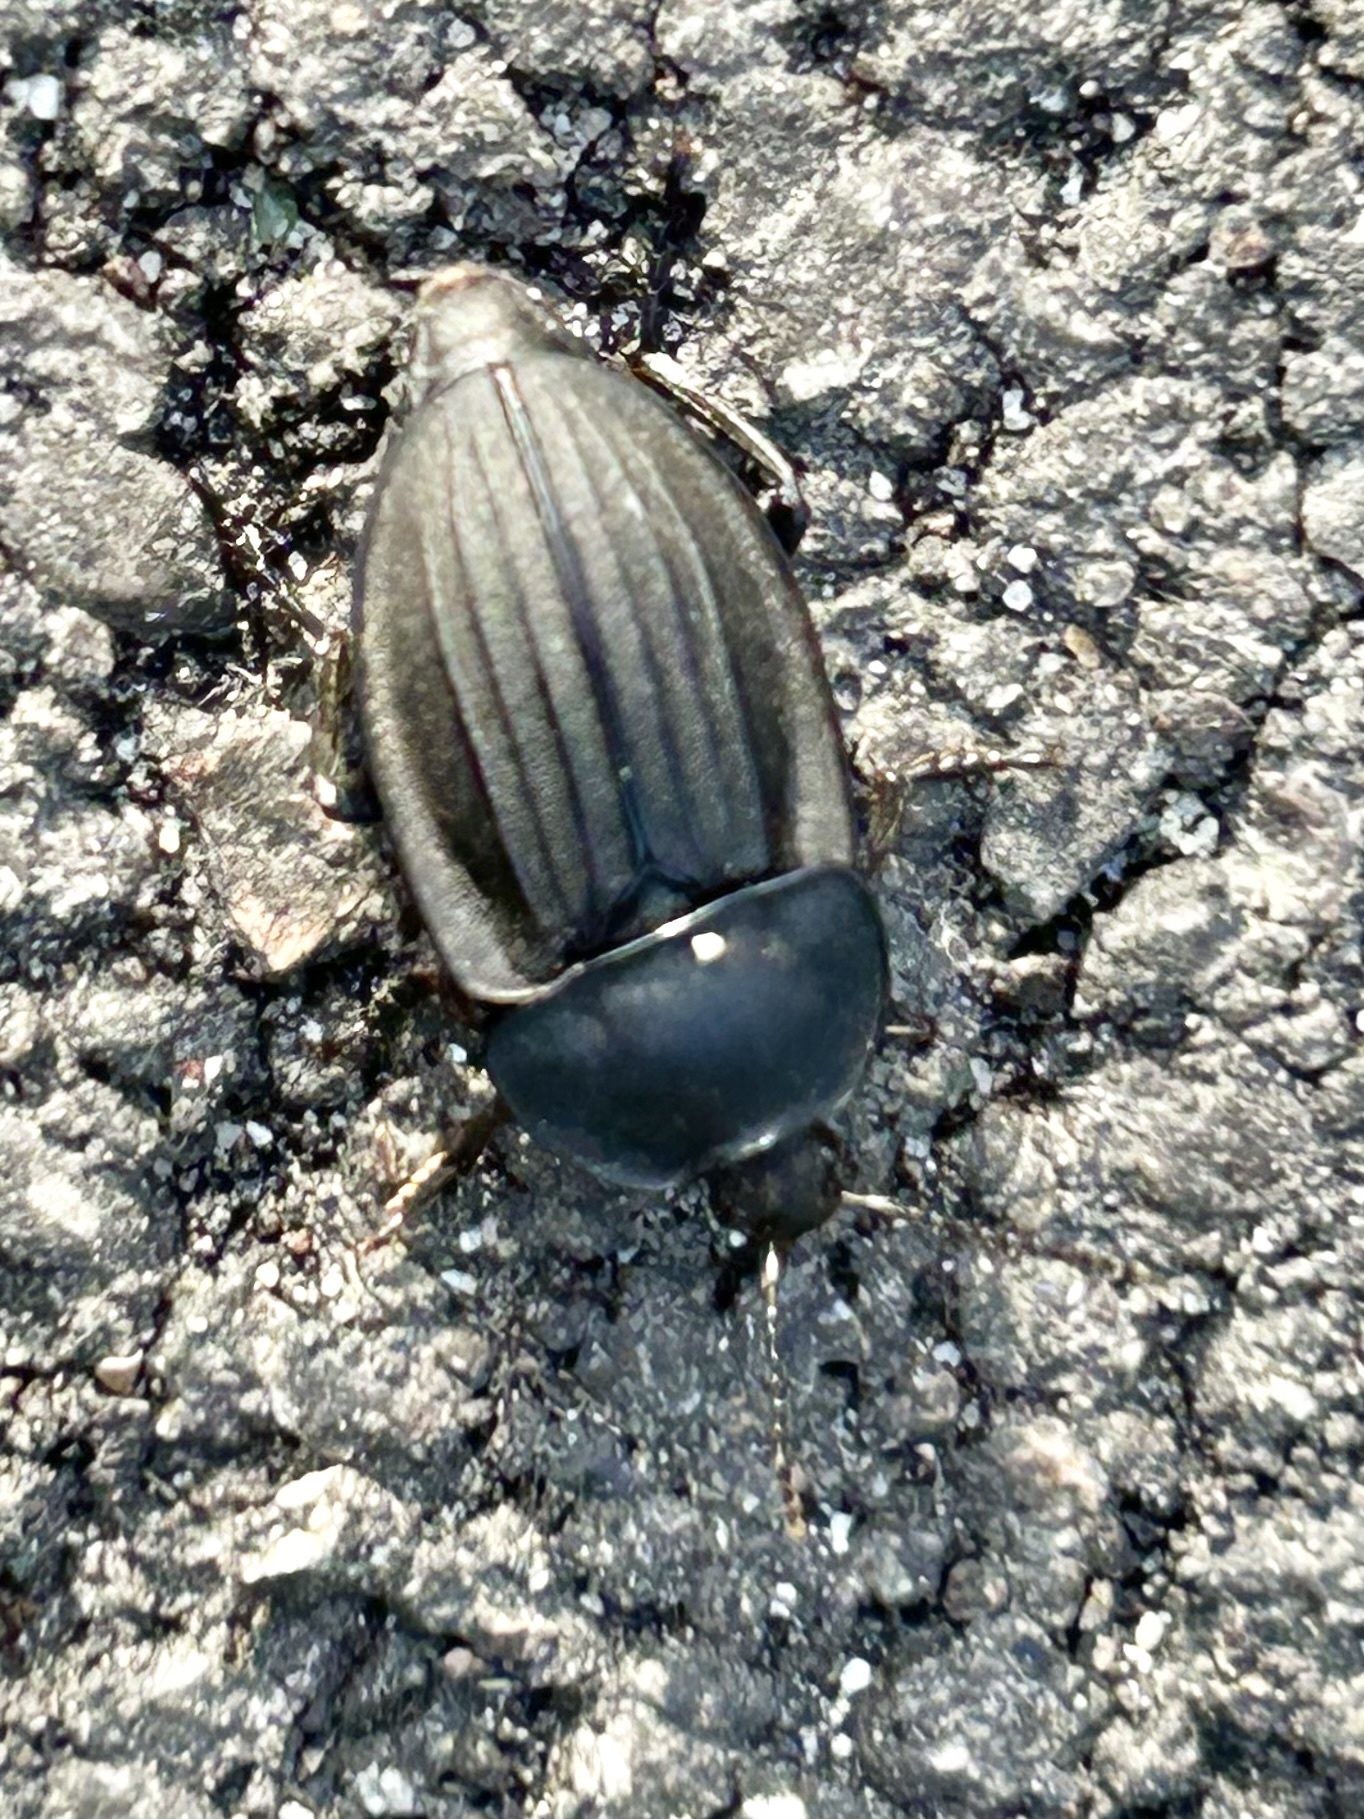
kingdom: Animalia
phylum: Arthropoda
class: Insecta
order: Coleoptera
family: Staphylinidae
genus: Silpha
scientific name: Silpha carinata
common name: Silphid beetle
